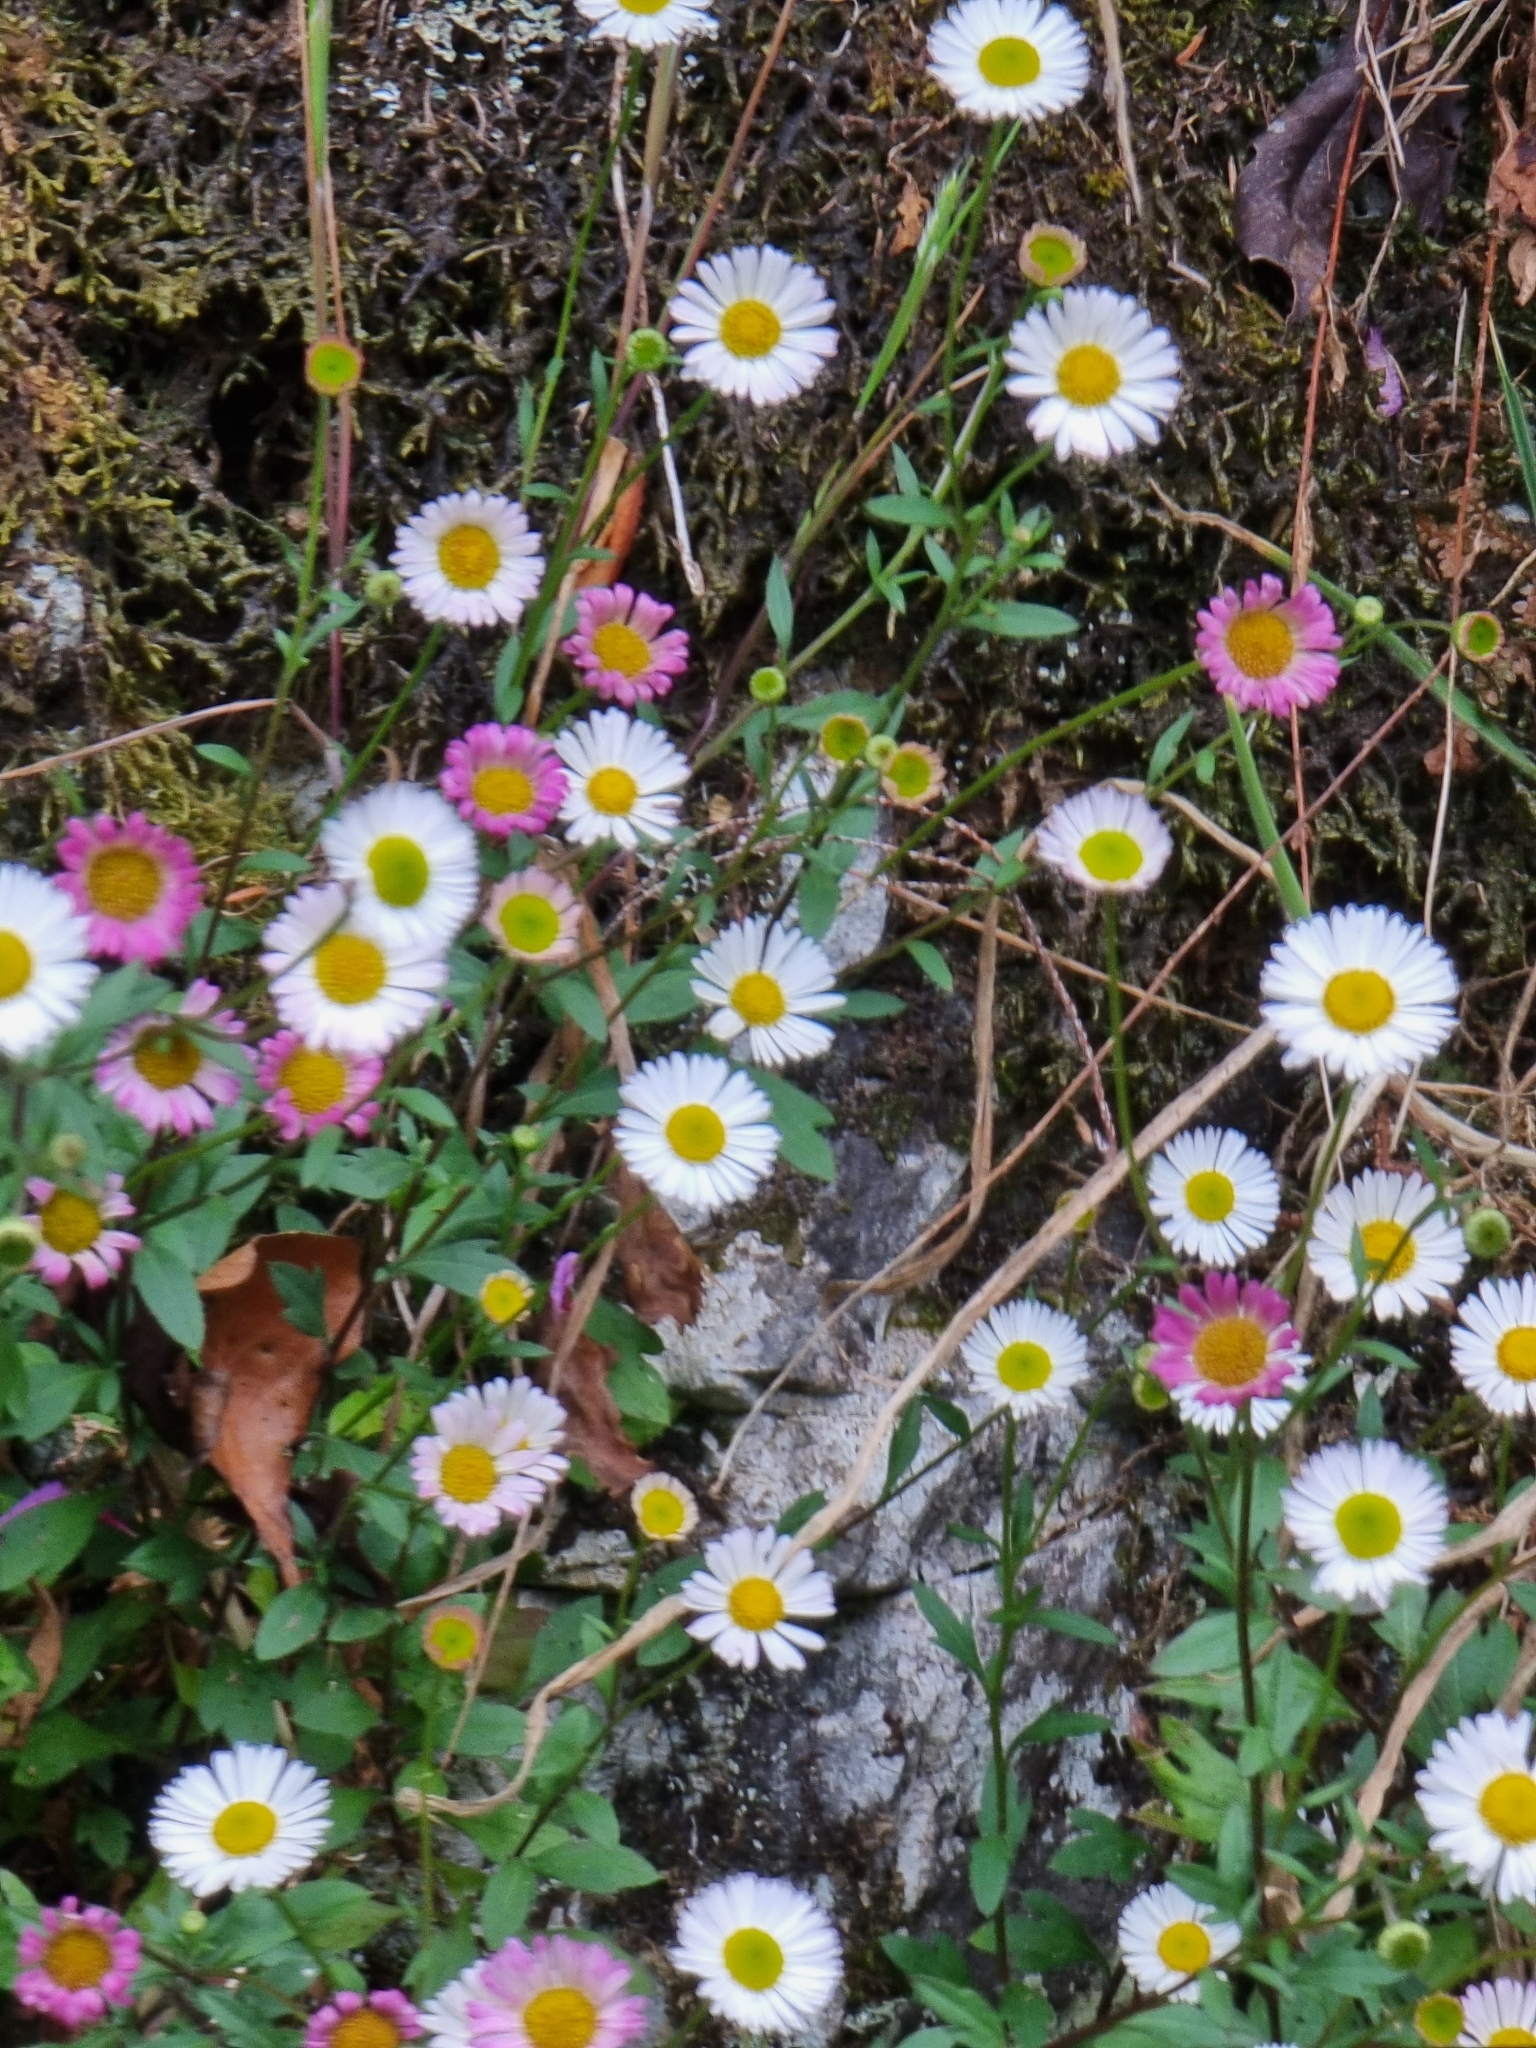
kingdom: Plantae
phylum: Tracheophyta
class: Magnoliopsida
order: Asterales
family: Asteraceae
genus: Erigeron
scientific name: Erigeron karvinskianus
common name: Mexican fleabane
